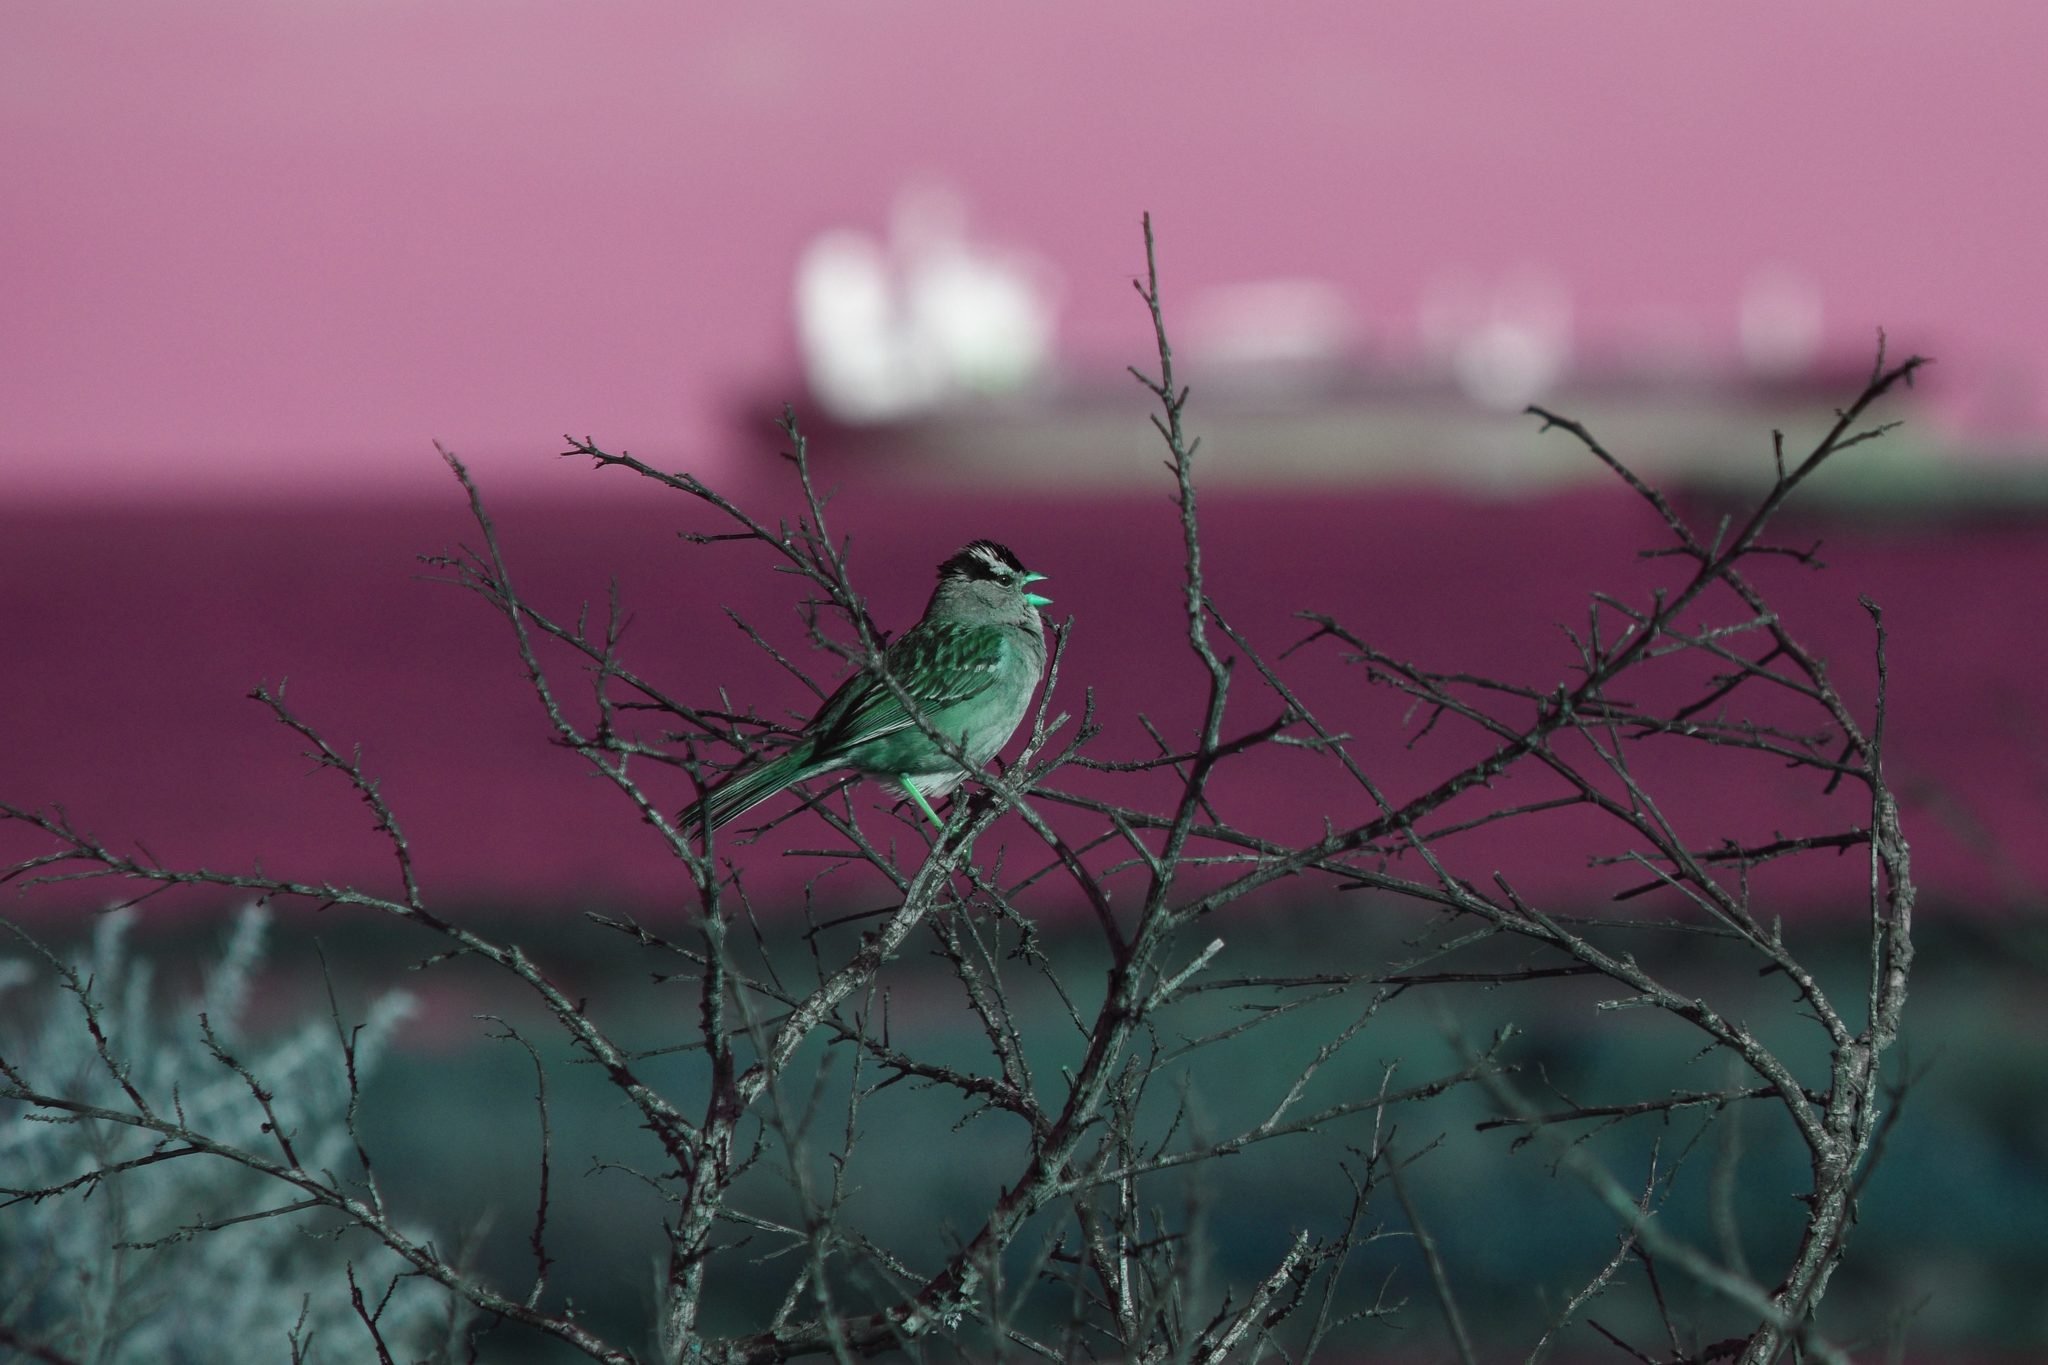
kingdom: Animalia
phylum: Chordata
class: Aves
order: Passeriformes
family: Passerellidae
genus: Zonotrichia
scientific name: Zonotrichia leucophrys
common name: White-crowned sparrow
